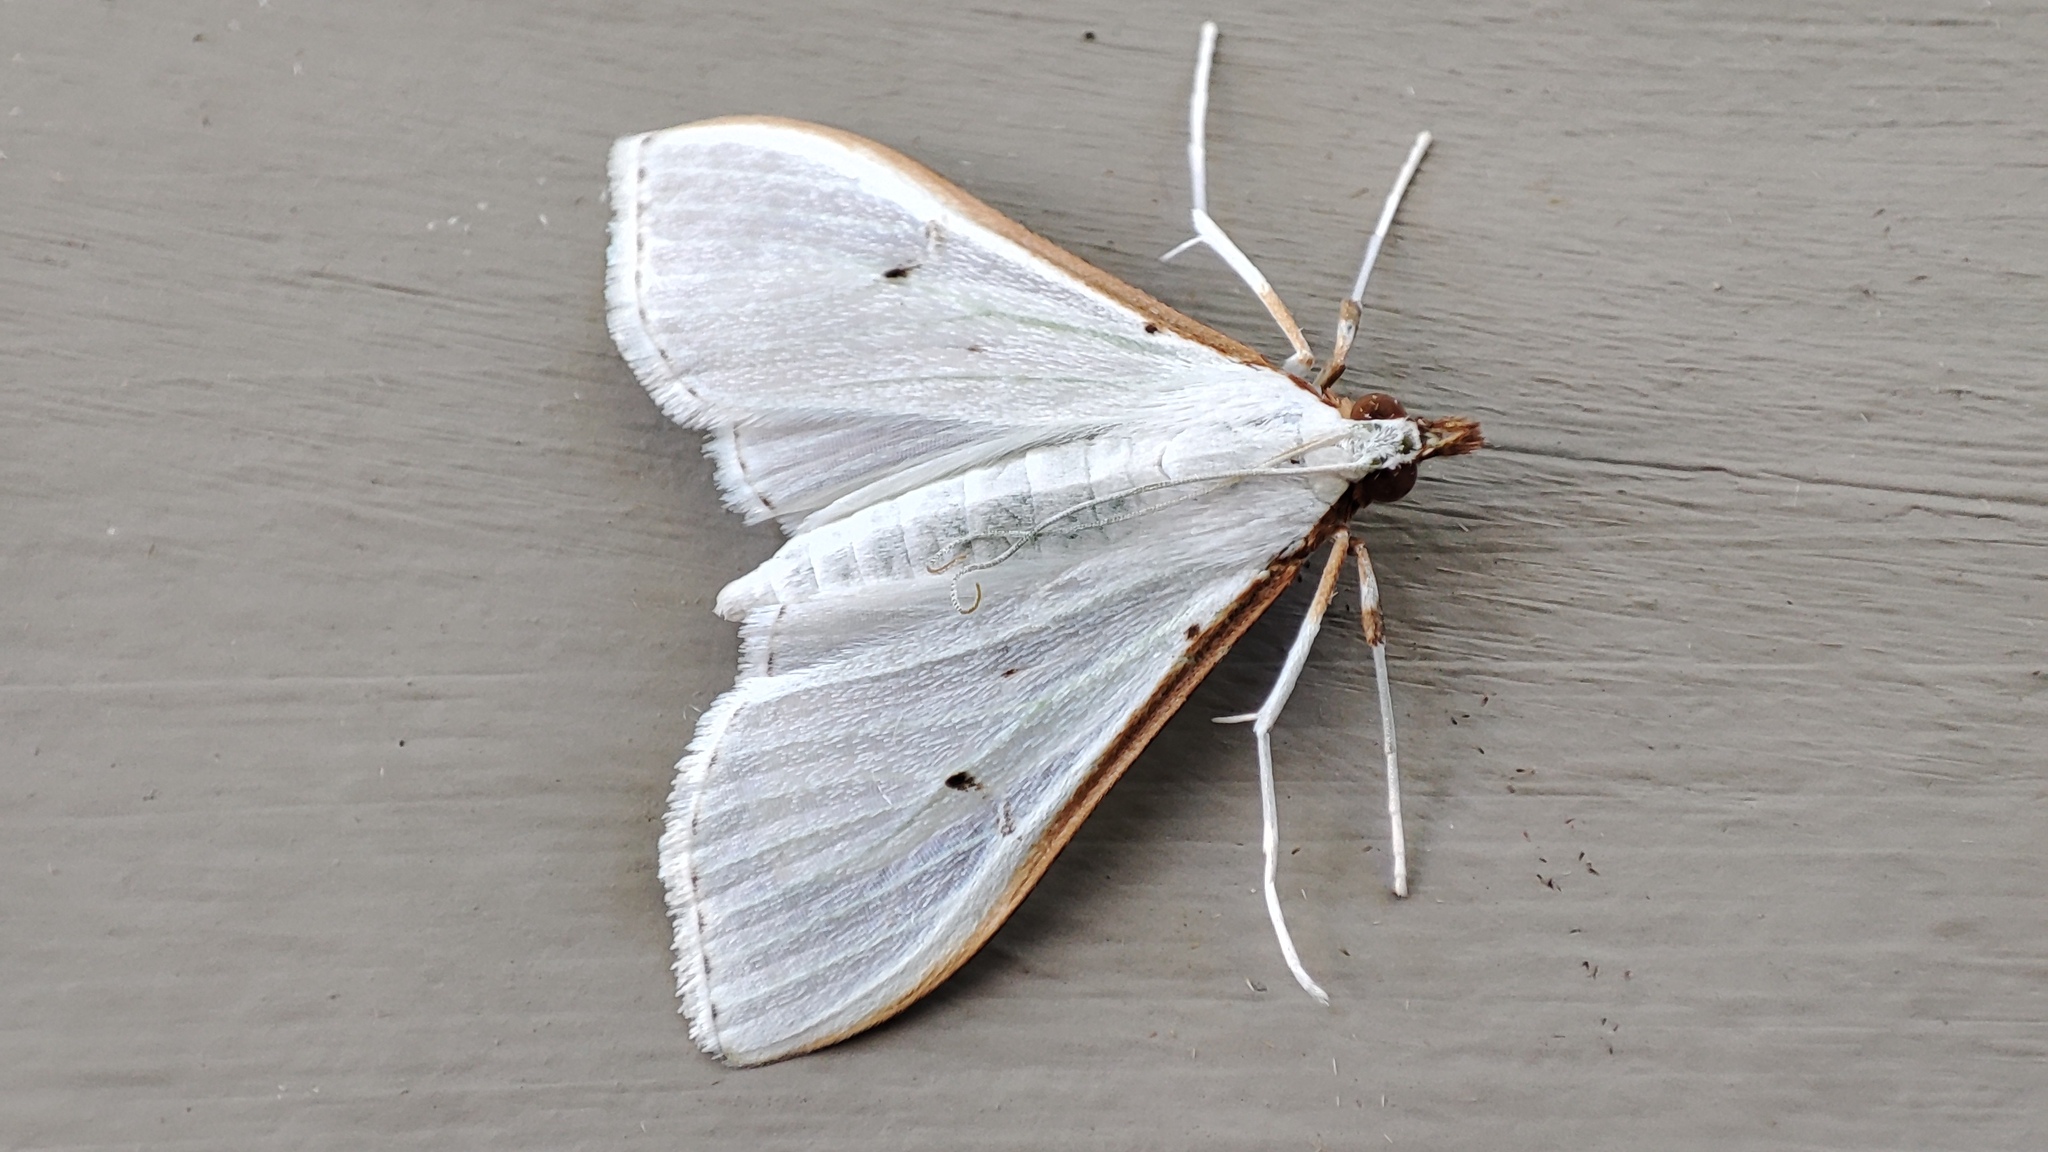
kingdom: Animalia
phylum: Arthropoda
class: Insecta
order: Lepidoptera
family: Crambidae
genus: Palpita
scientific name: Palpita vitrealis
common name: Olive-tree pearl
